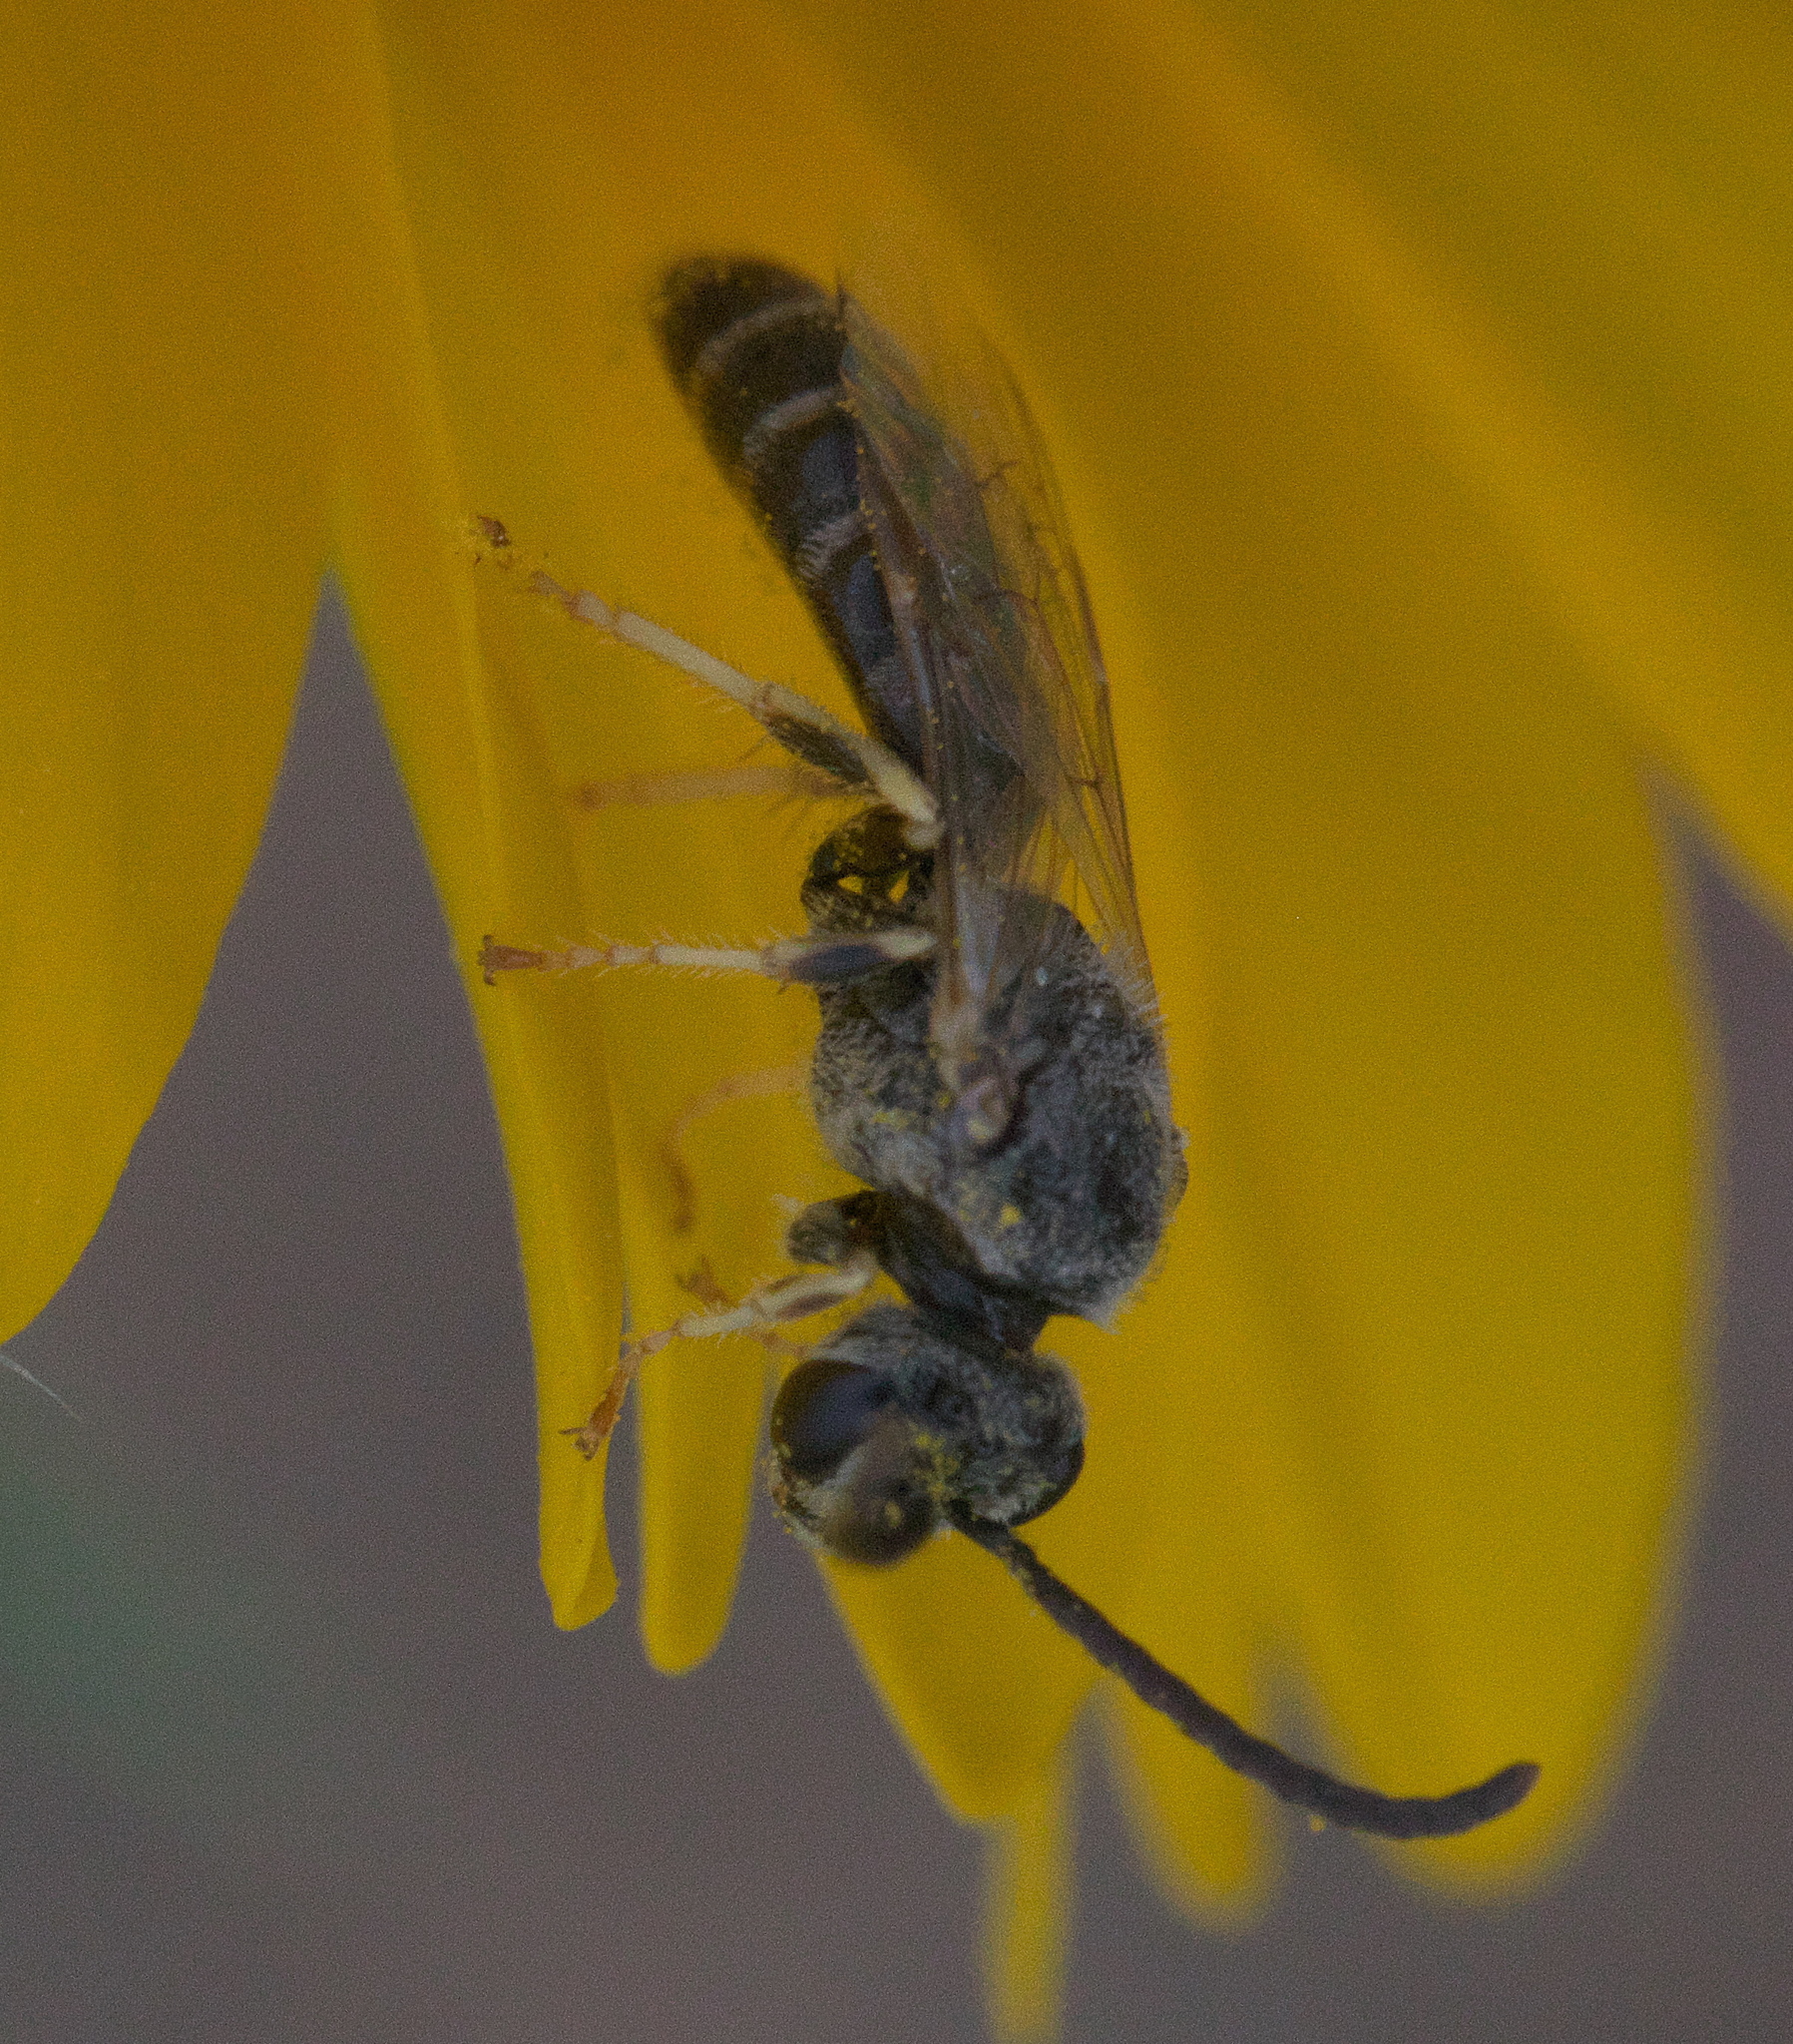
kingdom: Animalia
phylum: Arthropoda
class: Insecta
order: Hymenoptera
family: Halictidae
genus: Halictus
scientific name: Halictus confusus
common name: Southern bronze furrow bee
